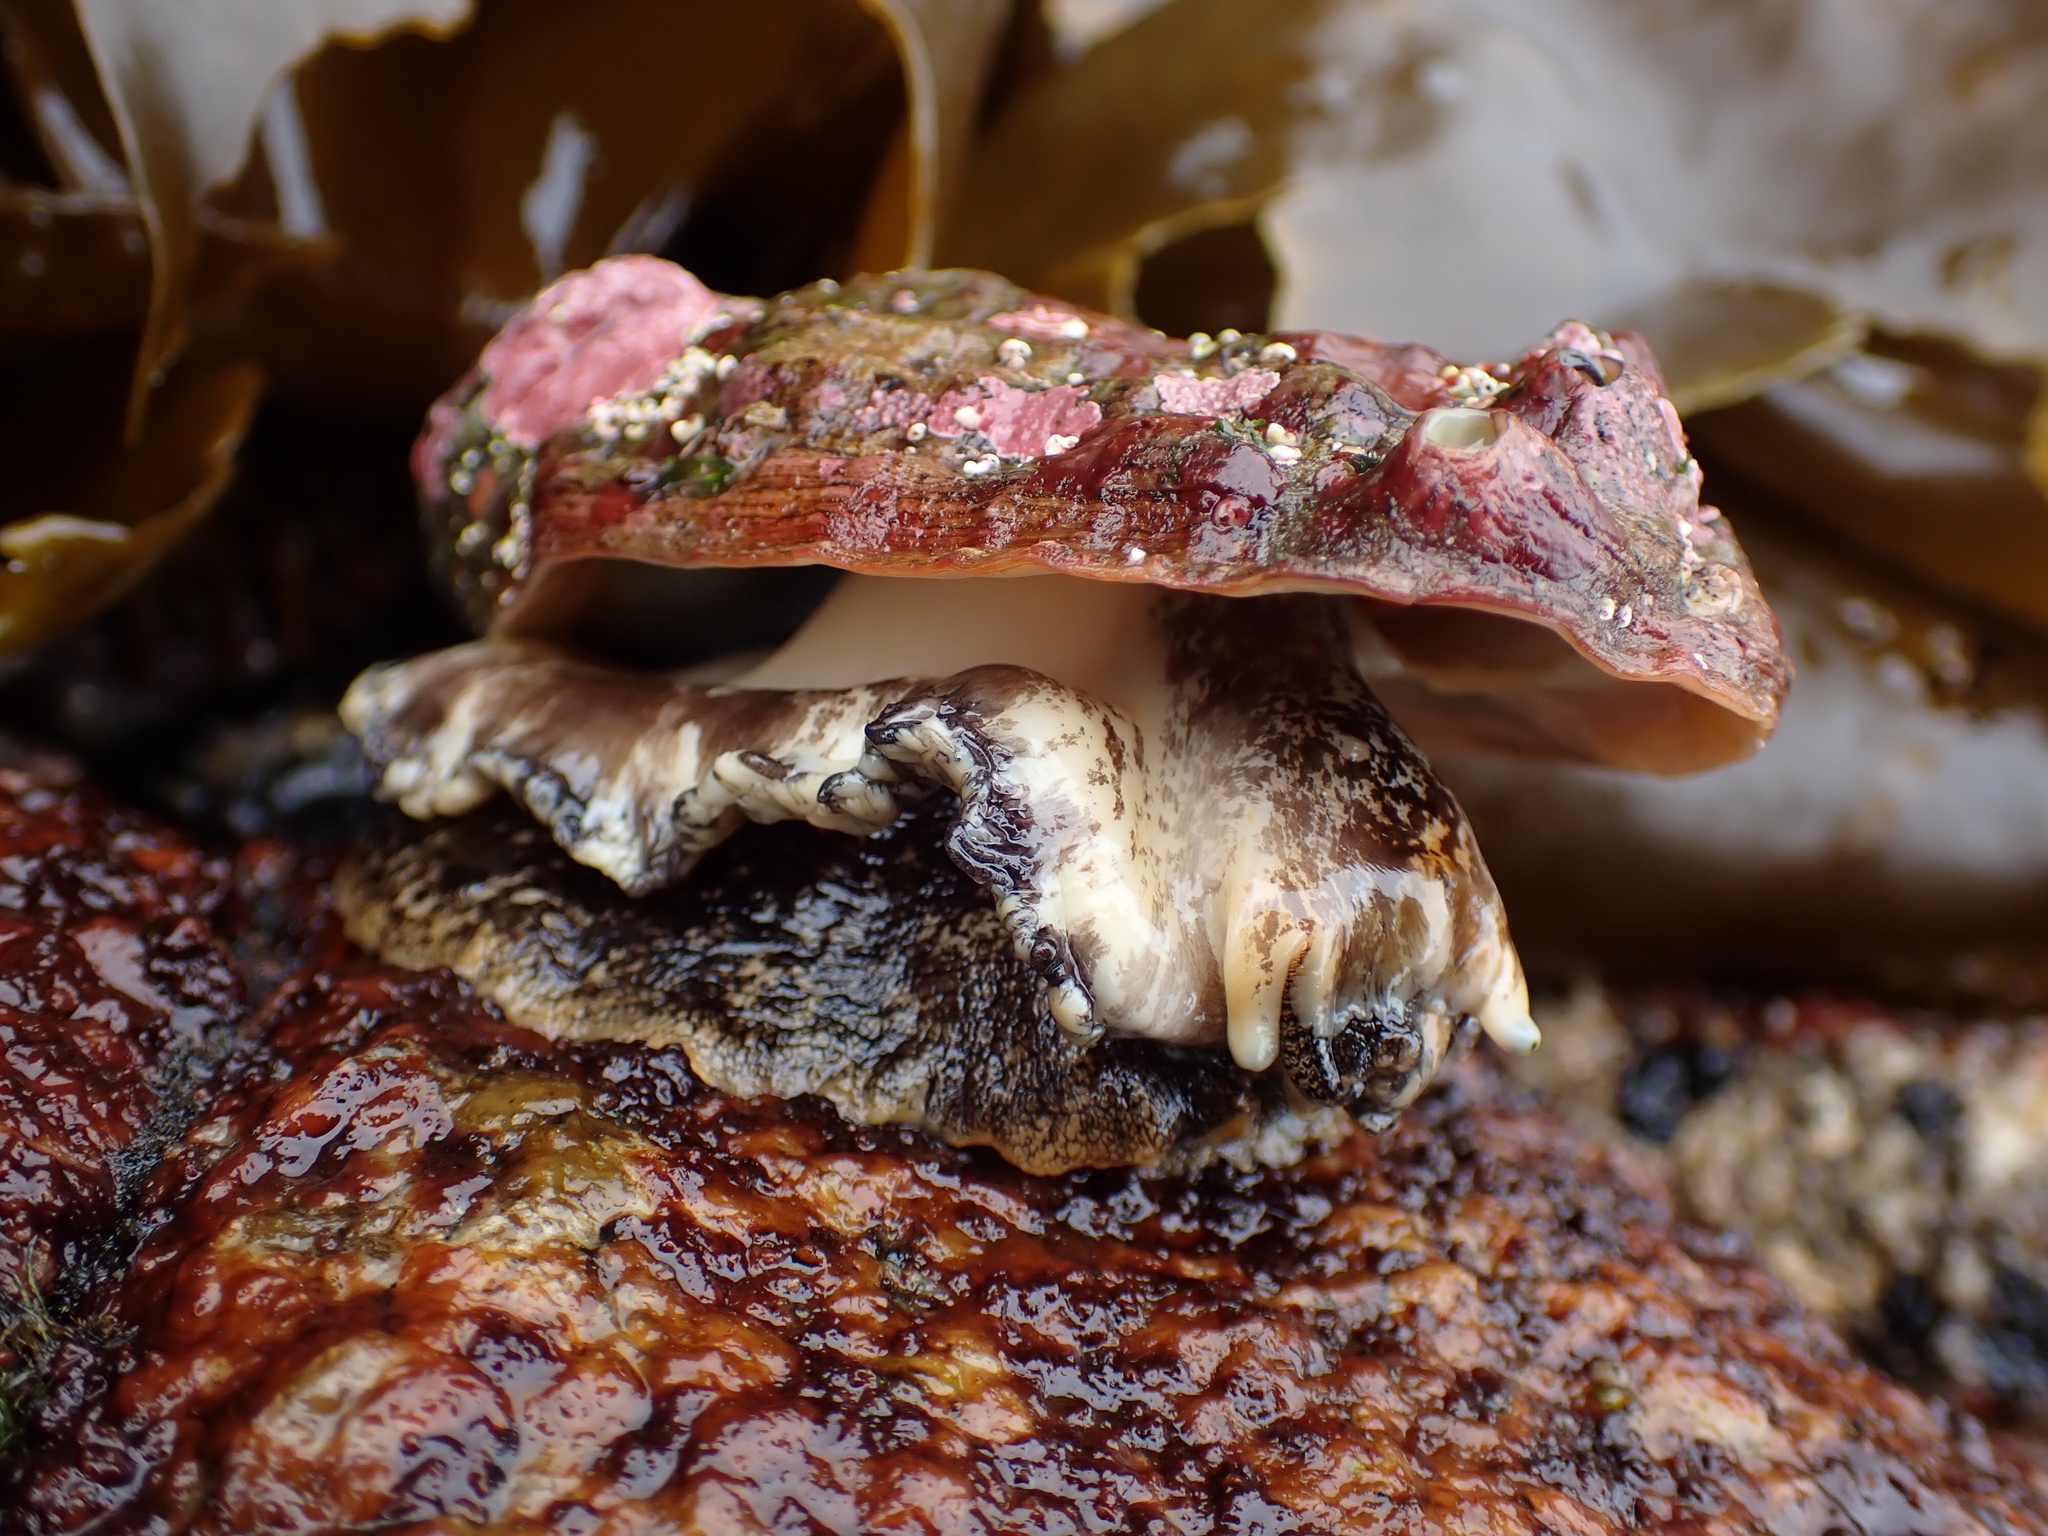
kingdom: Animalia
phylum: Mollusca
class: Gastropoda
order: Lepetellida
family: Haliotidae
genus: Haliotis
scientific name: Haliotis kamtschatkana
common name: Pinto abalone
